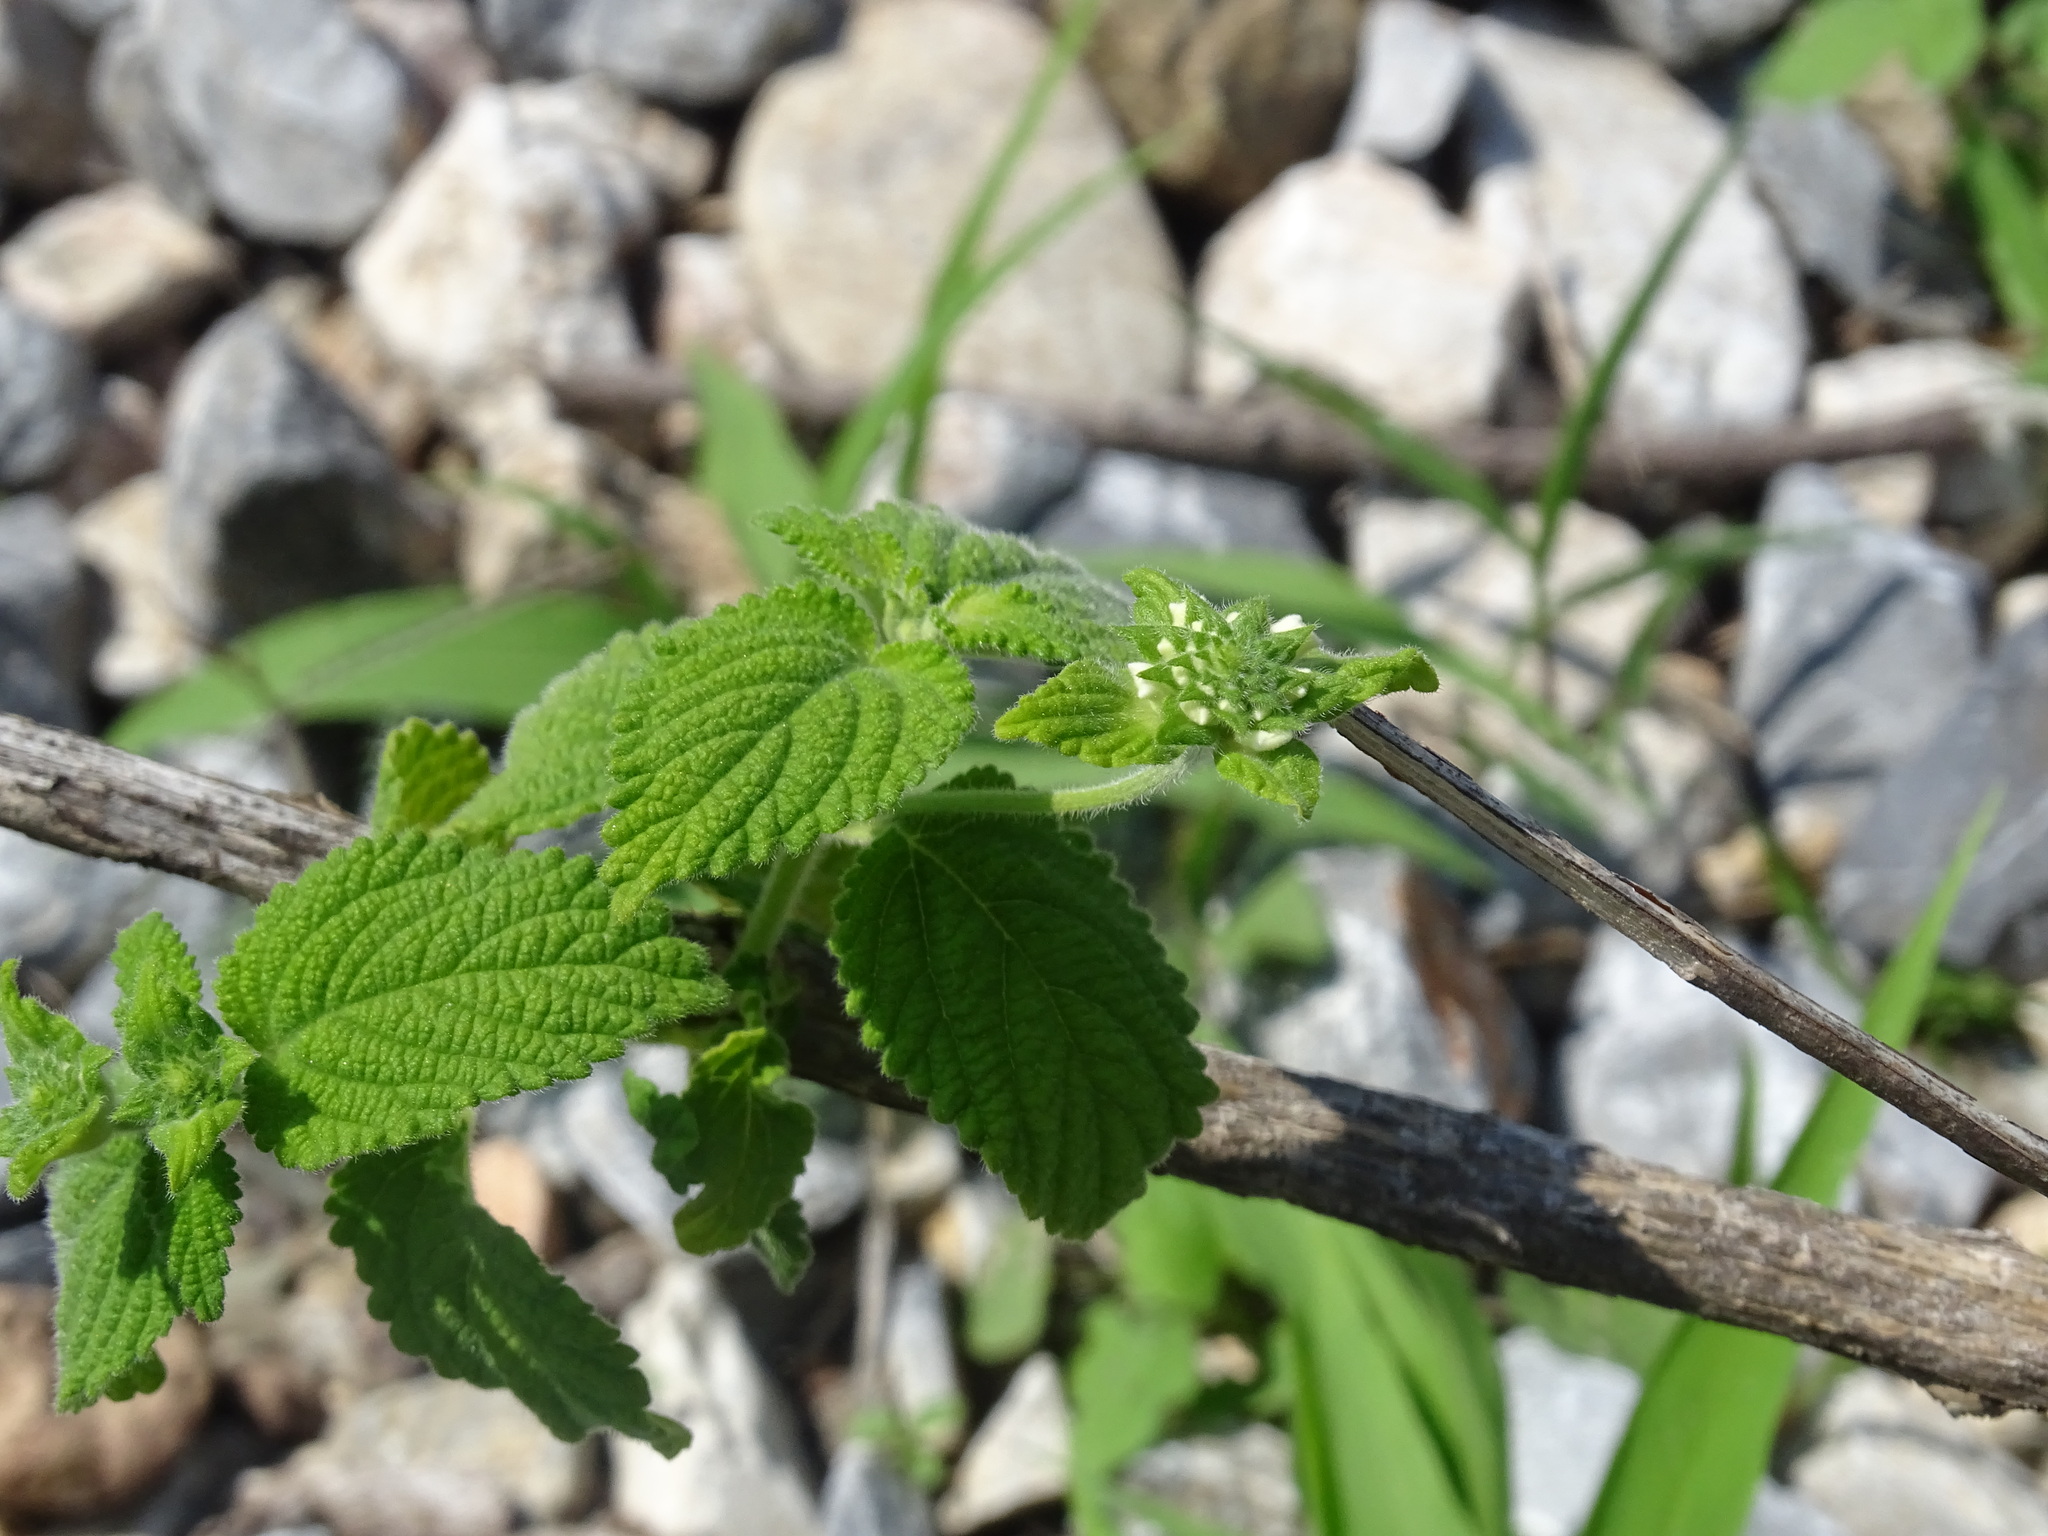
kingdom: Plantae
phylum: Tracheophyta
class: Magnoliopsida
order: Lamiales
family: Verbenaceae
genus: Lantana
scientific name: Lantana velutina
